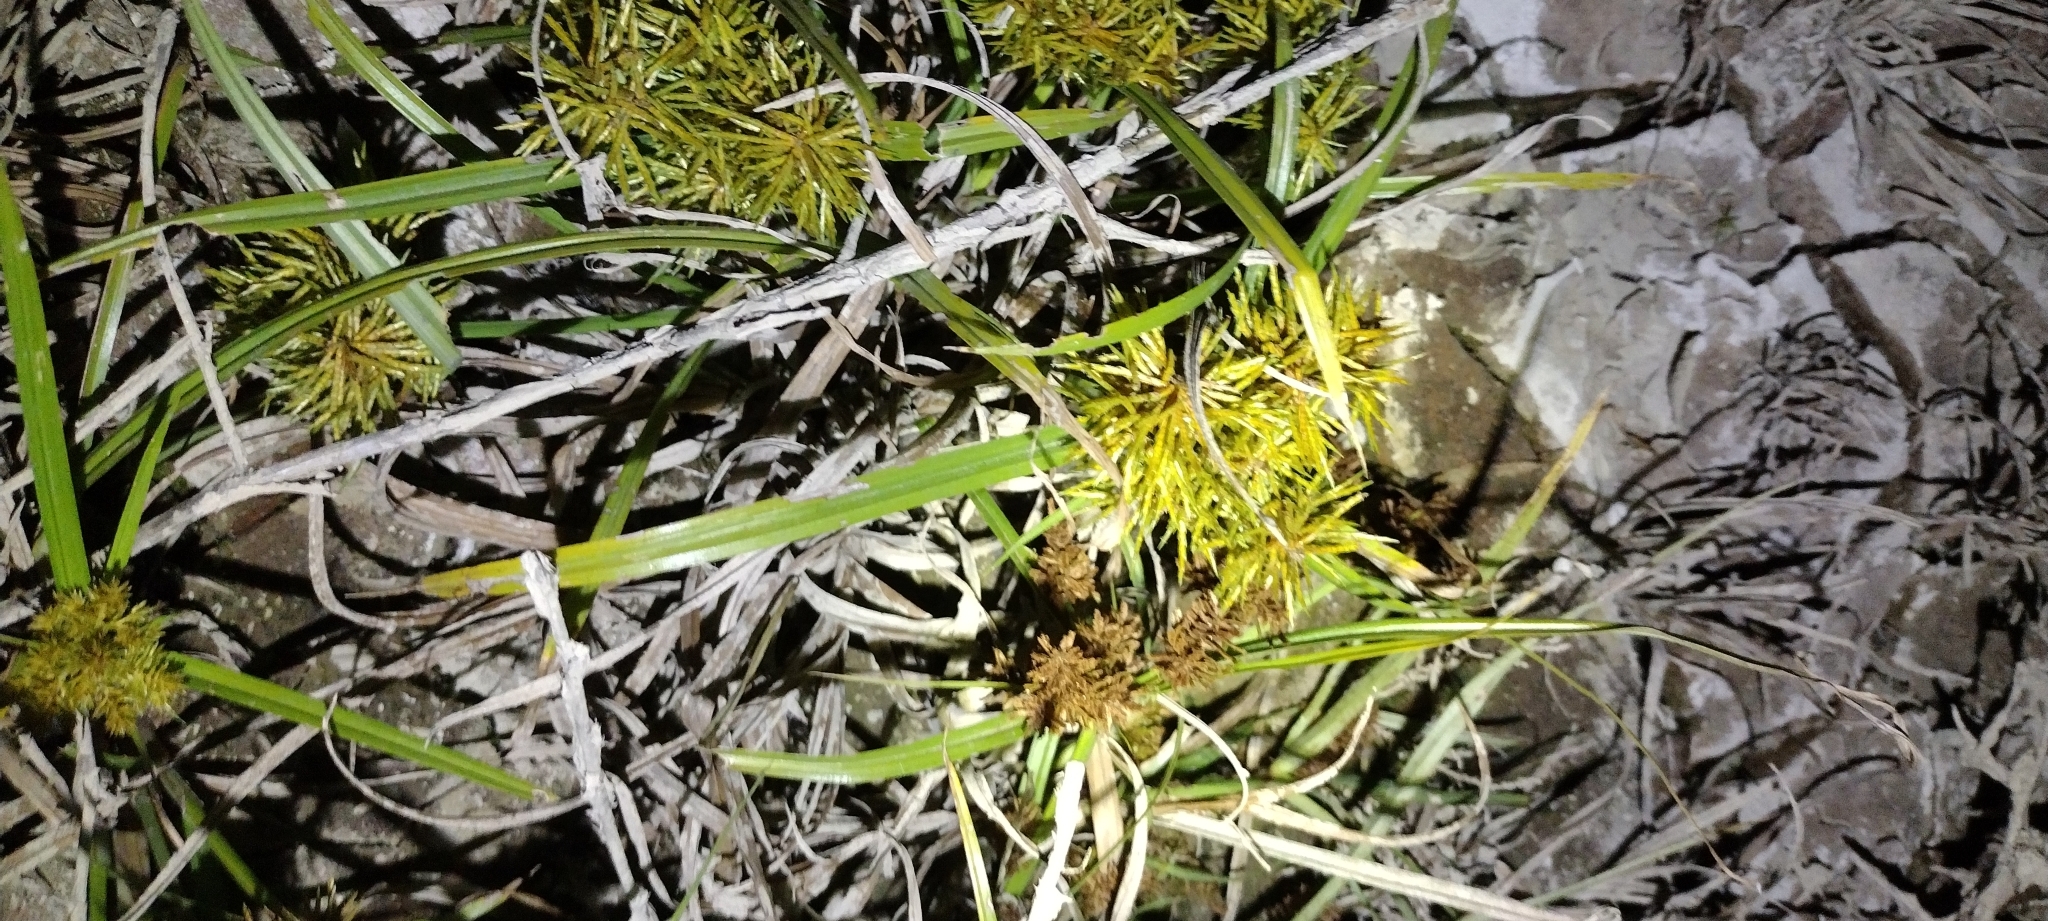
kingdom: Plantae
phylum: Tracheophyta
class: Liliopsida
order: Poales
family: Cyperaceae
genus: Cyperus
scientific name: Cyperus odoratus
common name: Fragrant flatsedge
